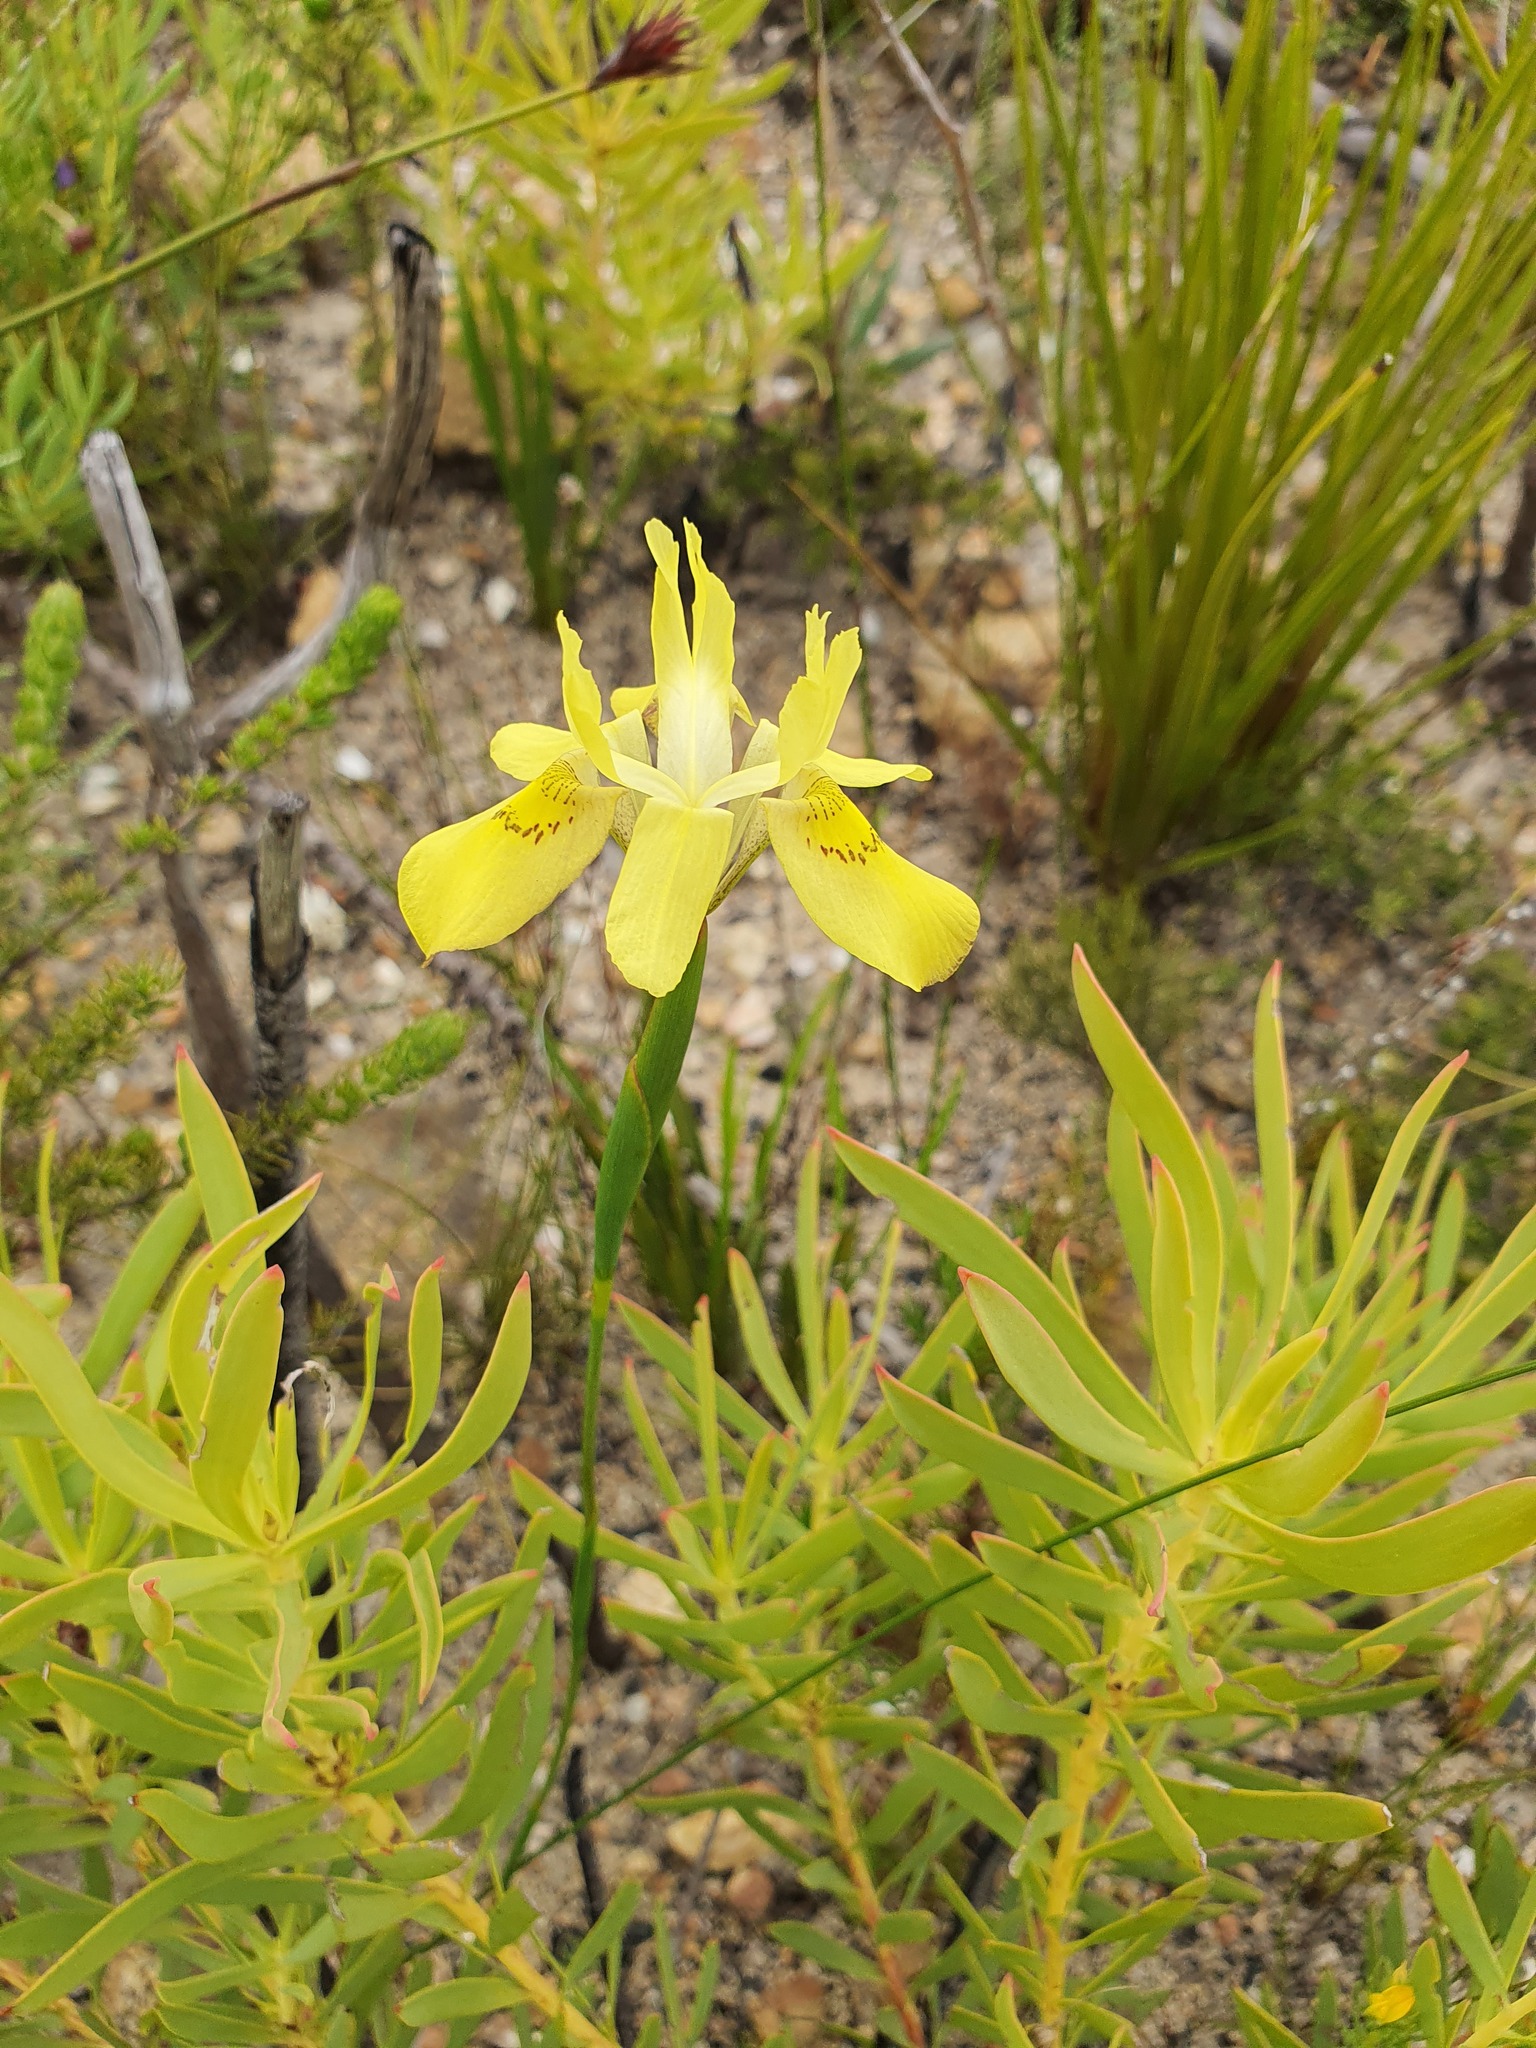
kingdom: Plantae
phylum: Tracheophyta
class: Liliopsida
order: Asparagales
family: Iridaceae
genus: Moraea
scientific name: Moraea anomala
